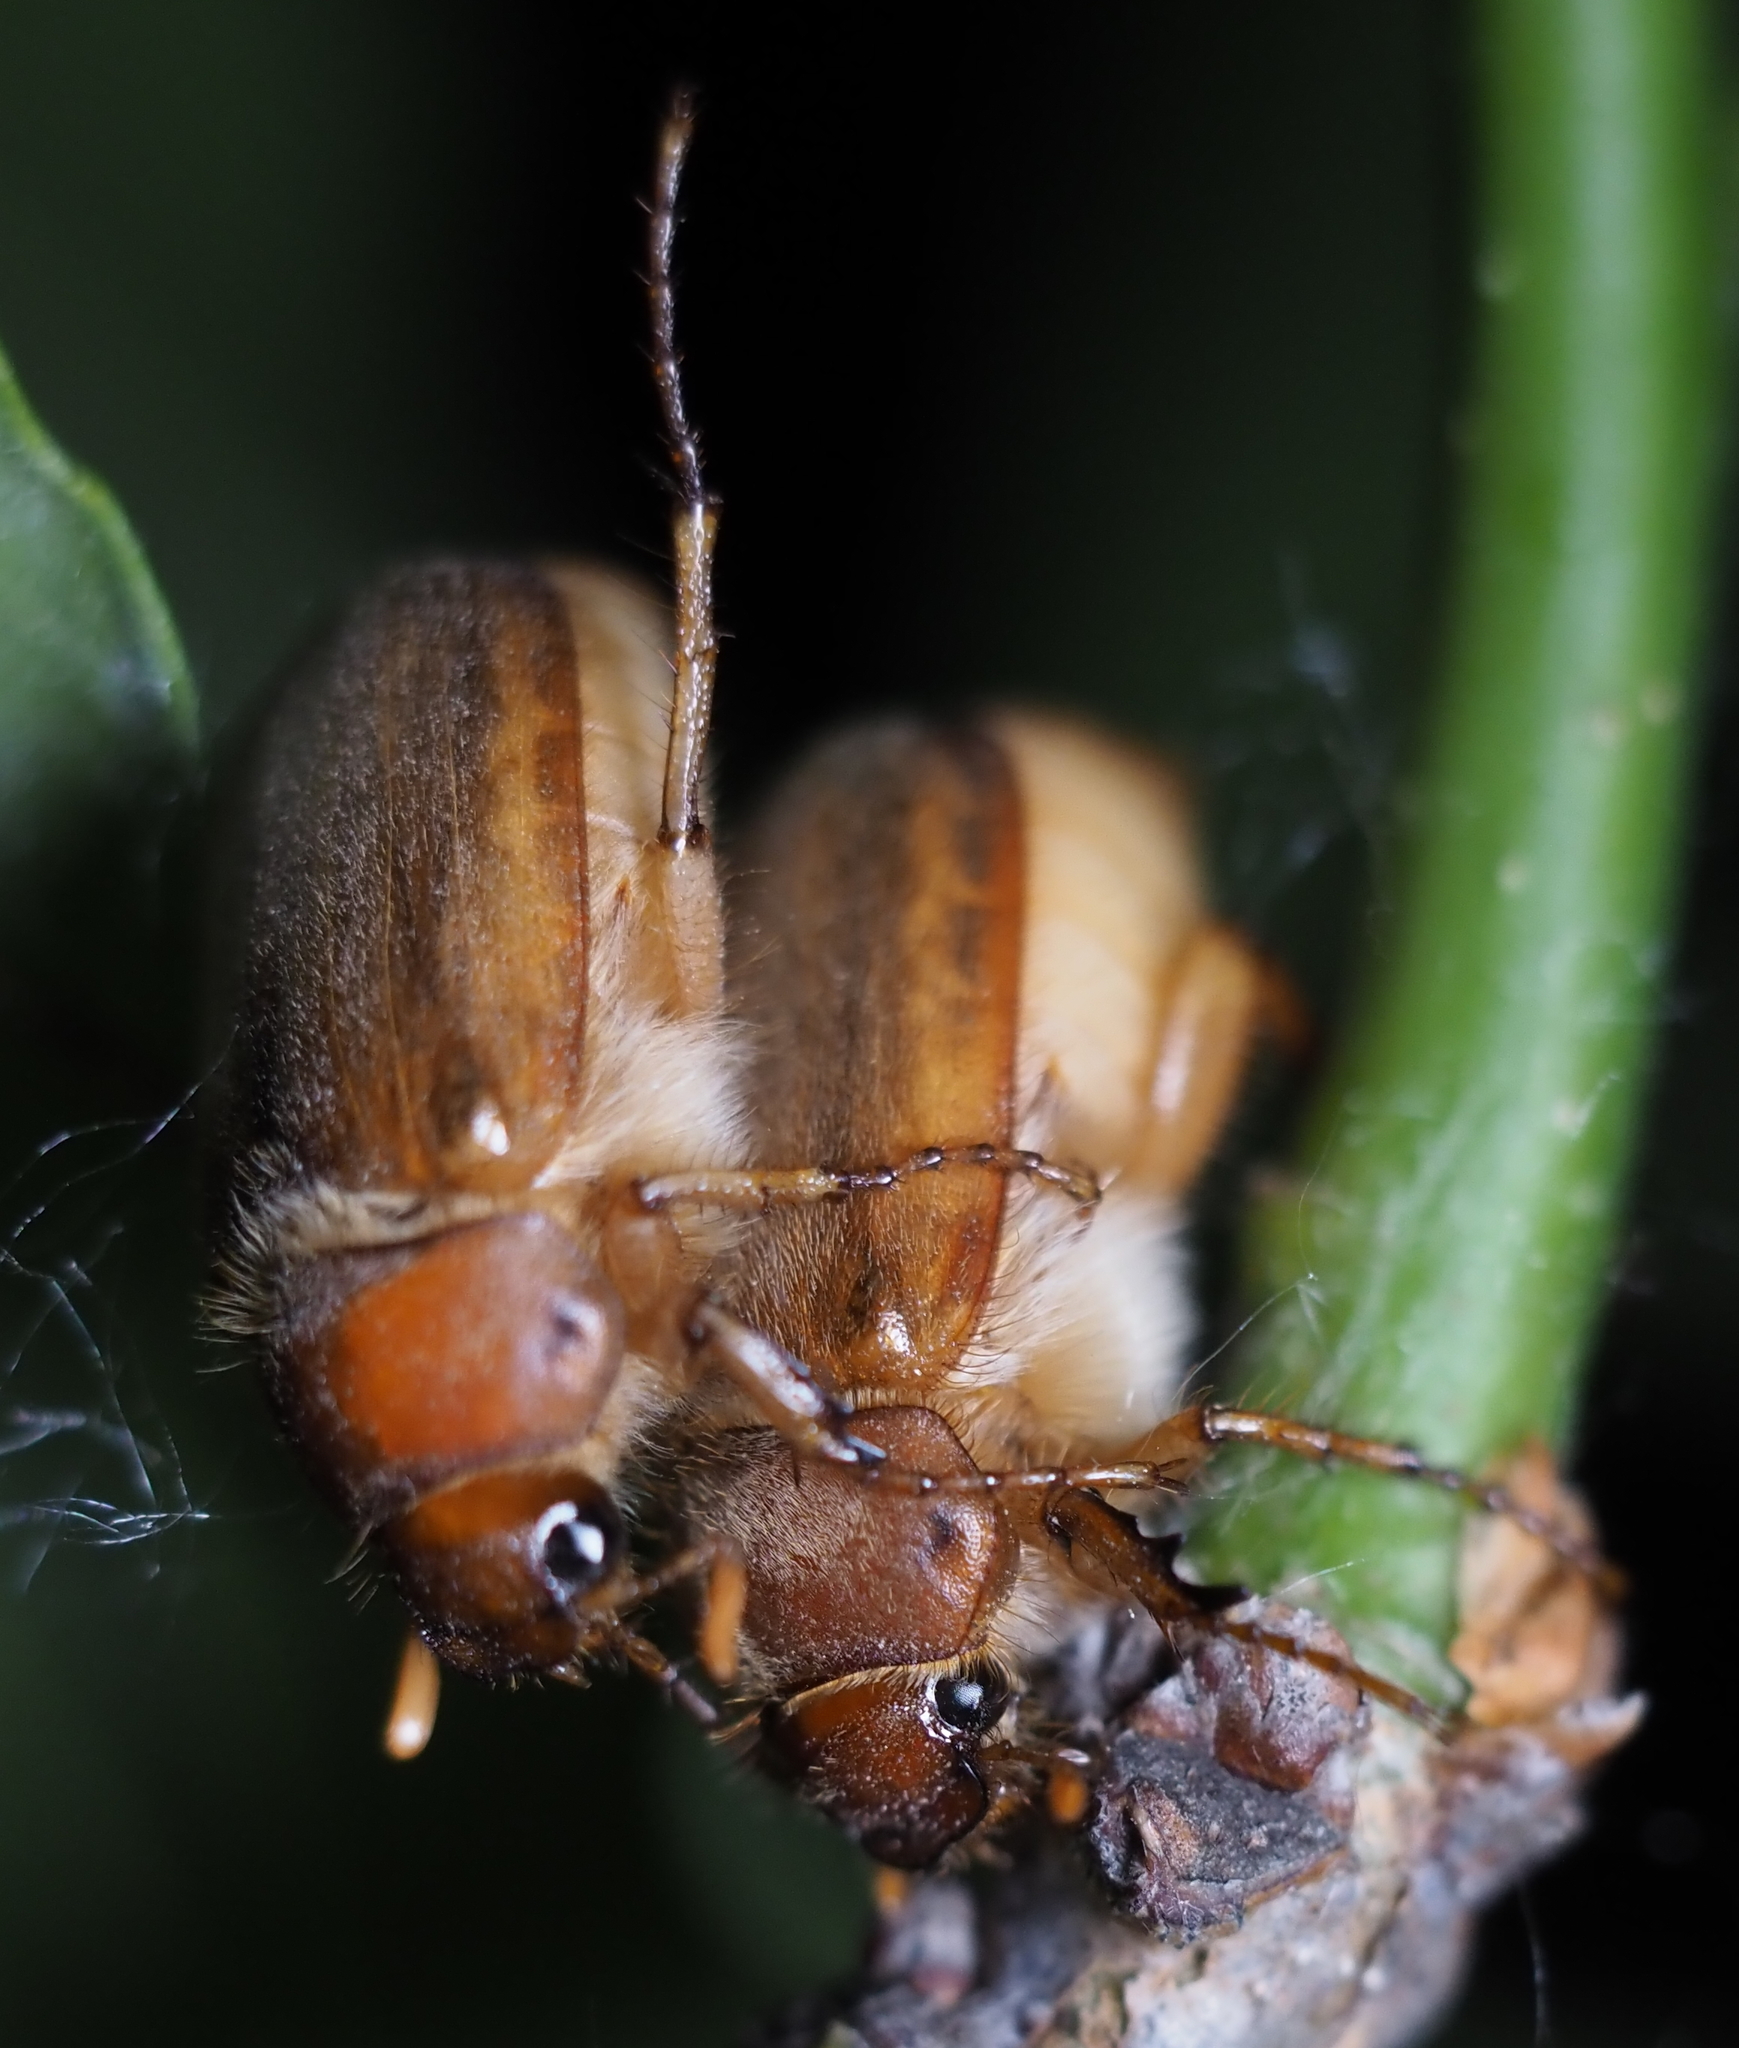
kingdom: Animalia
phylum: Arthropoda
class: Insecta
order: Coleoptera
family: Scarabaeidae
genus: Amphimallon
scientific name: Amphimallon majale
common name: European chafer
